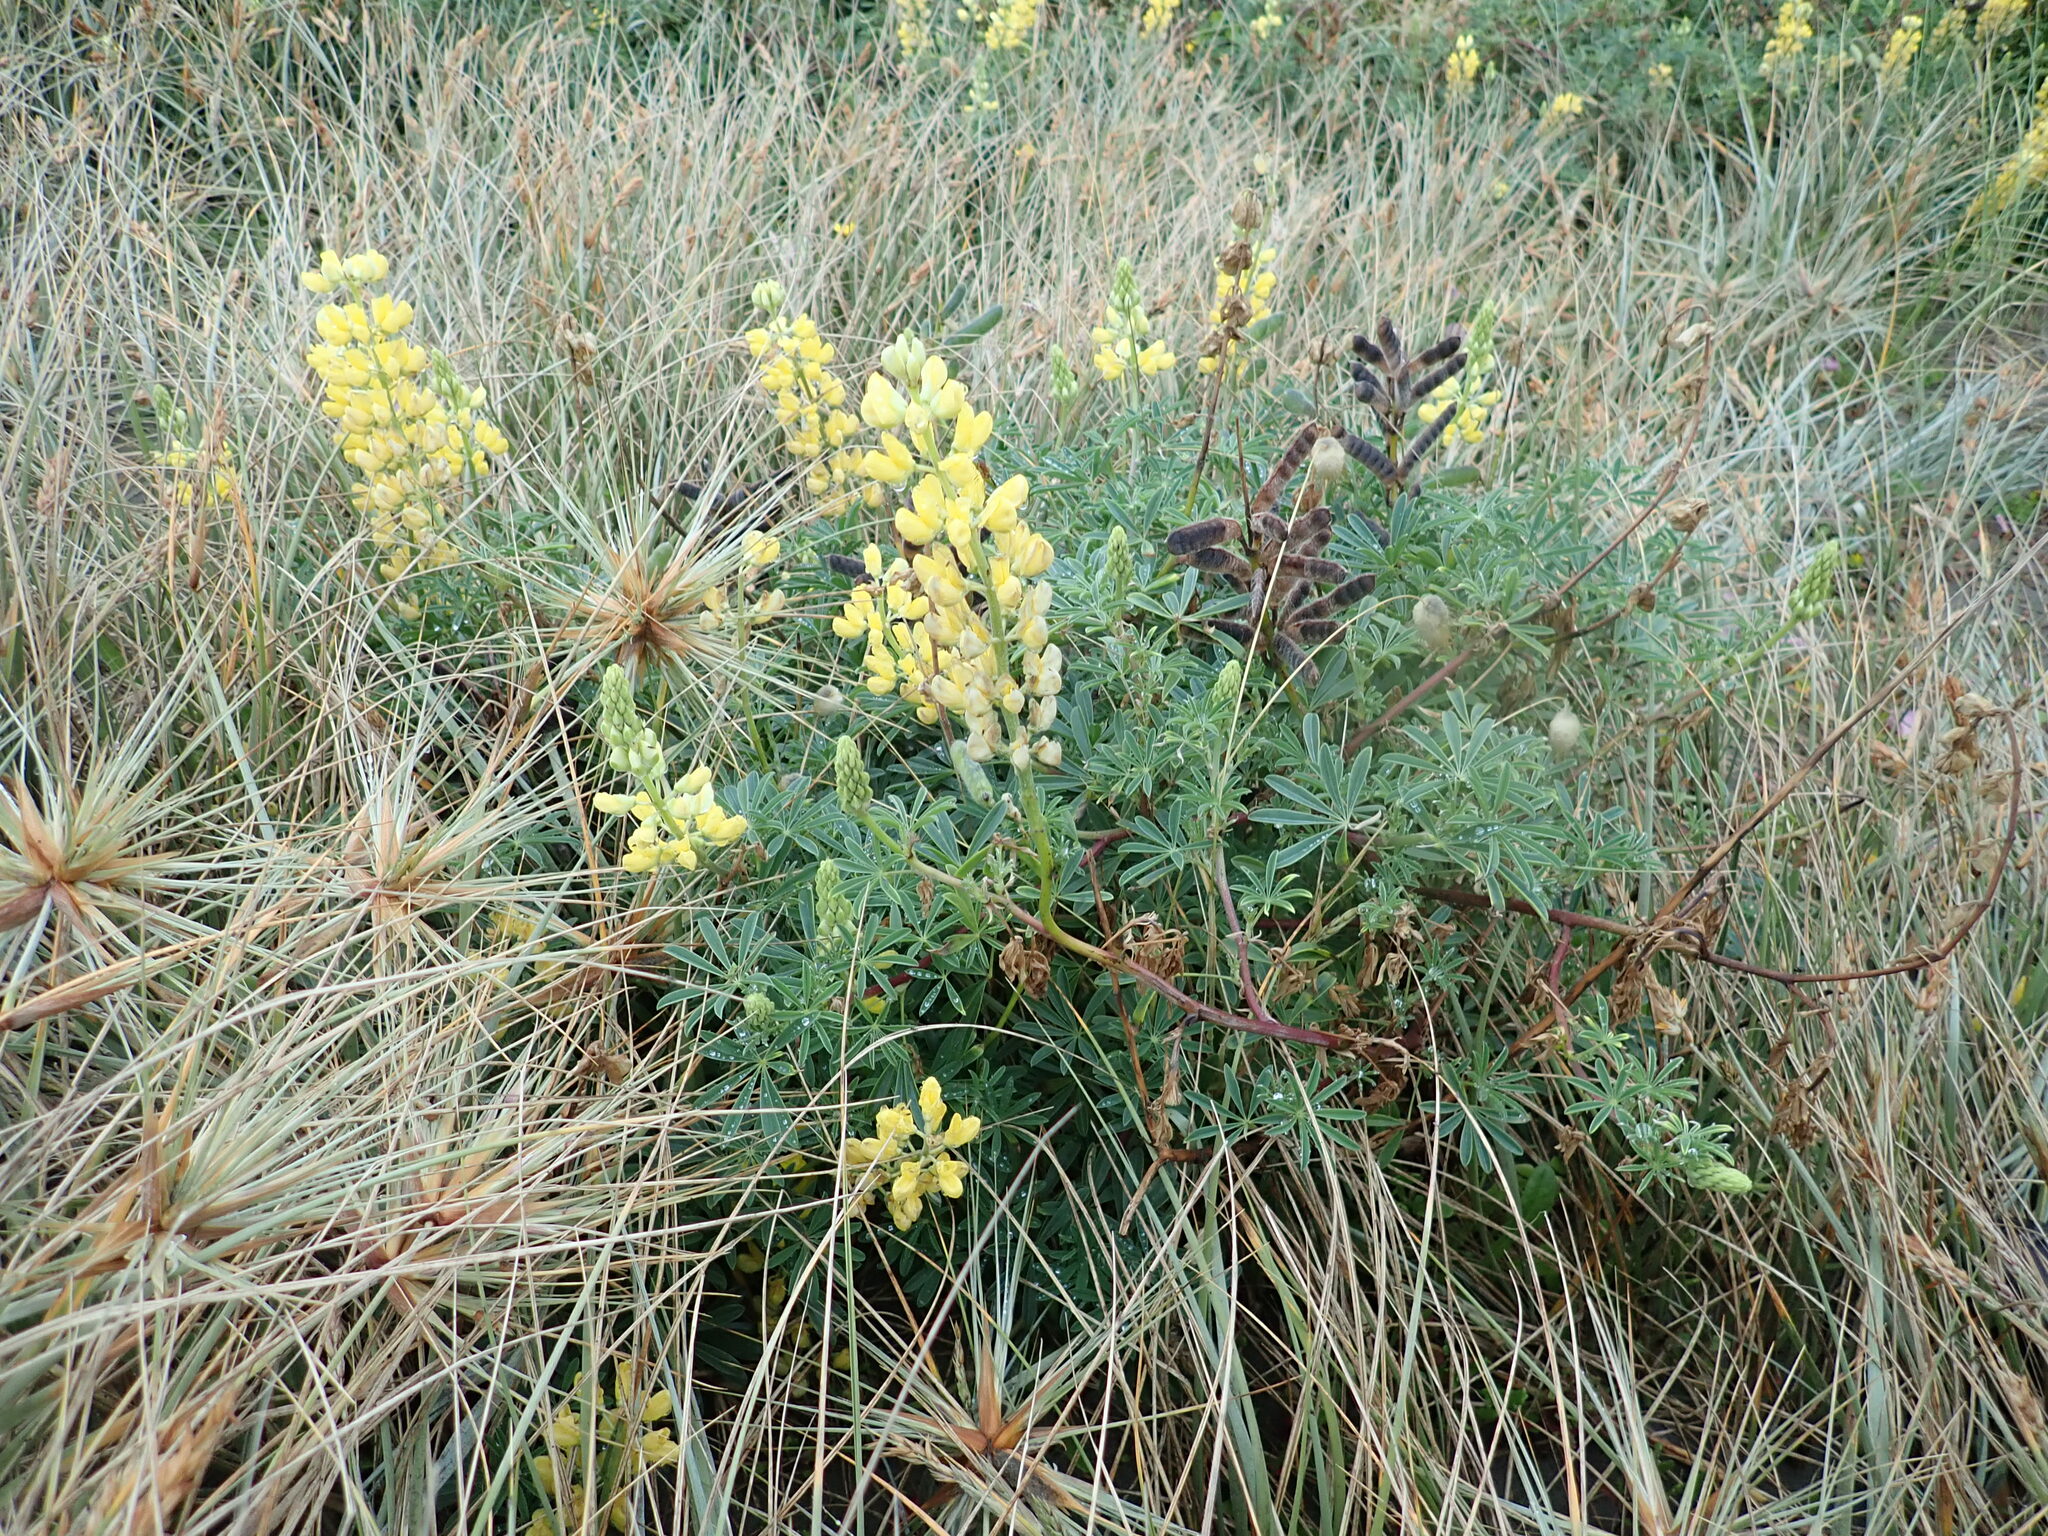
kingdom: Plantae
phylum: Tracheophyta
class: Magnoliopsida
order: Fabales
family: Fabaceae
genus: Lupinus
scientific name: Lupinus arboreus
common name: Yellow bush lupine
